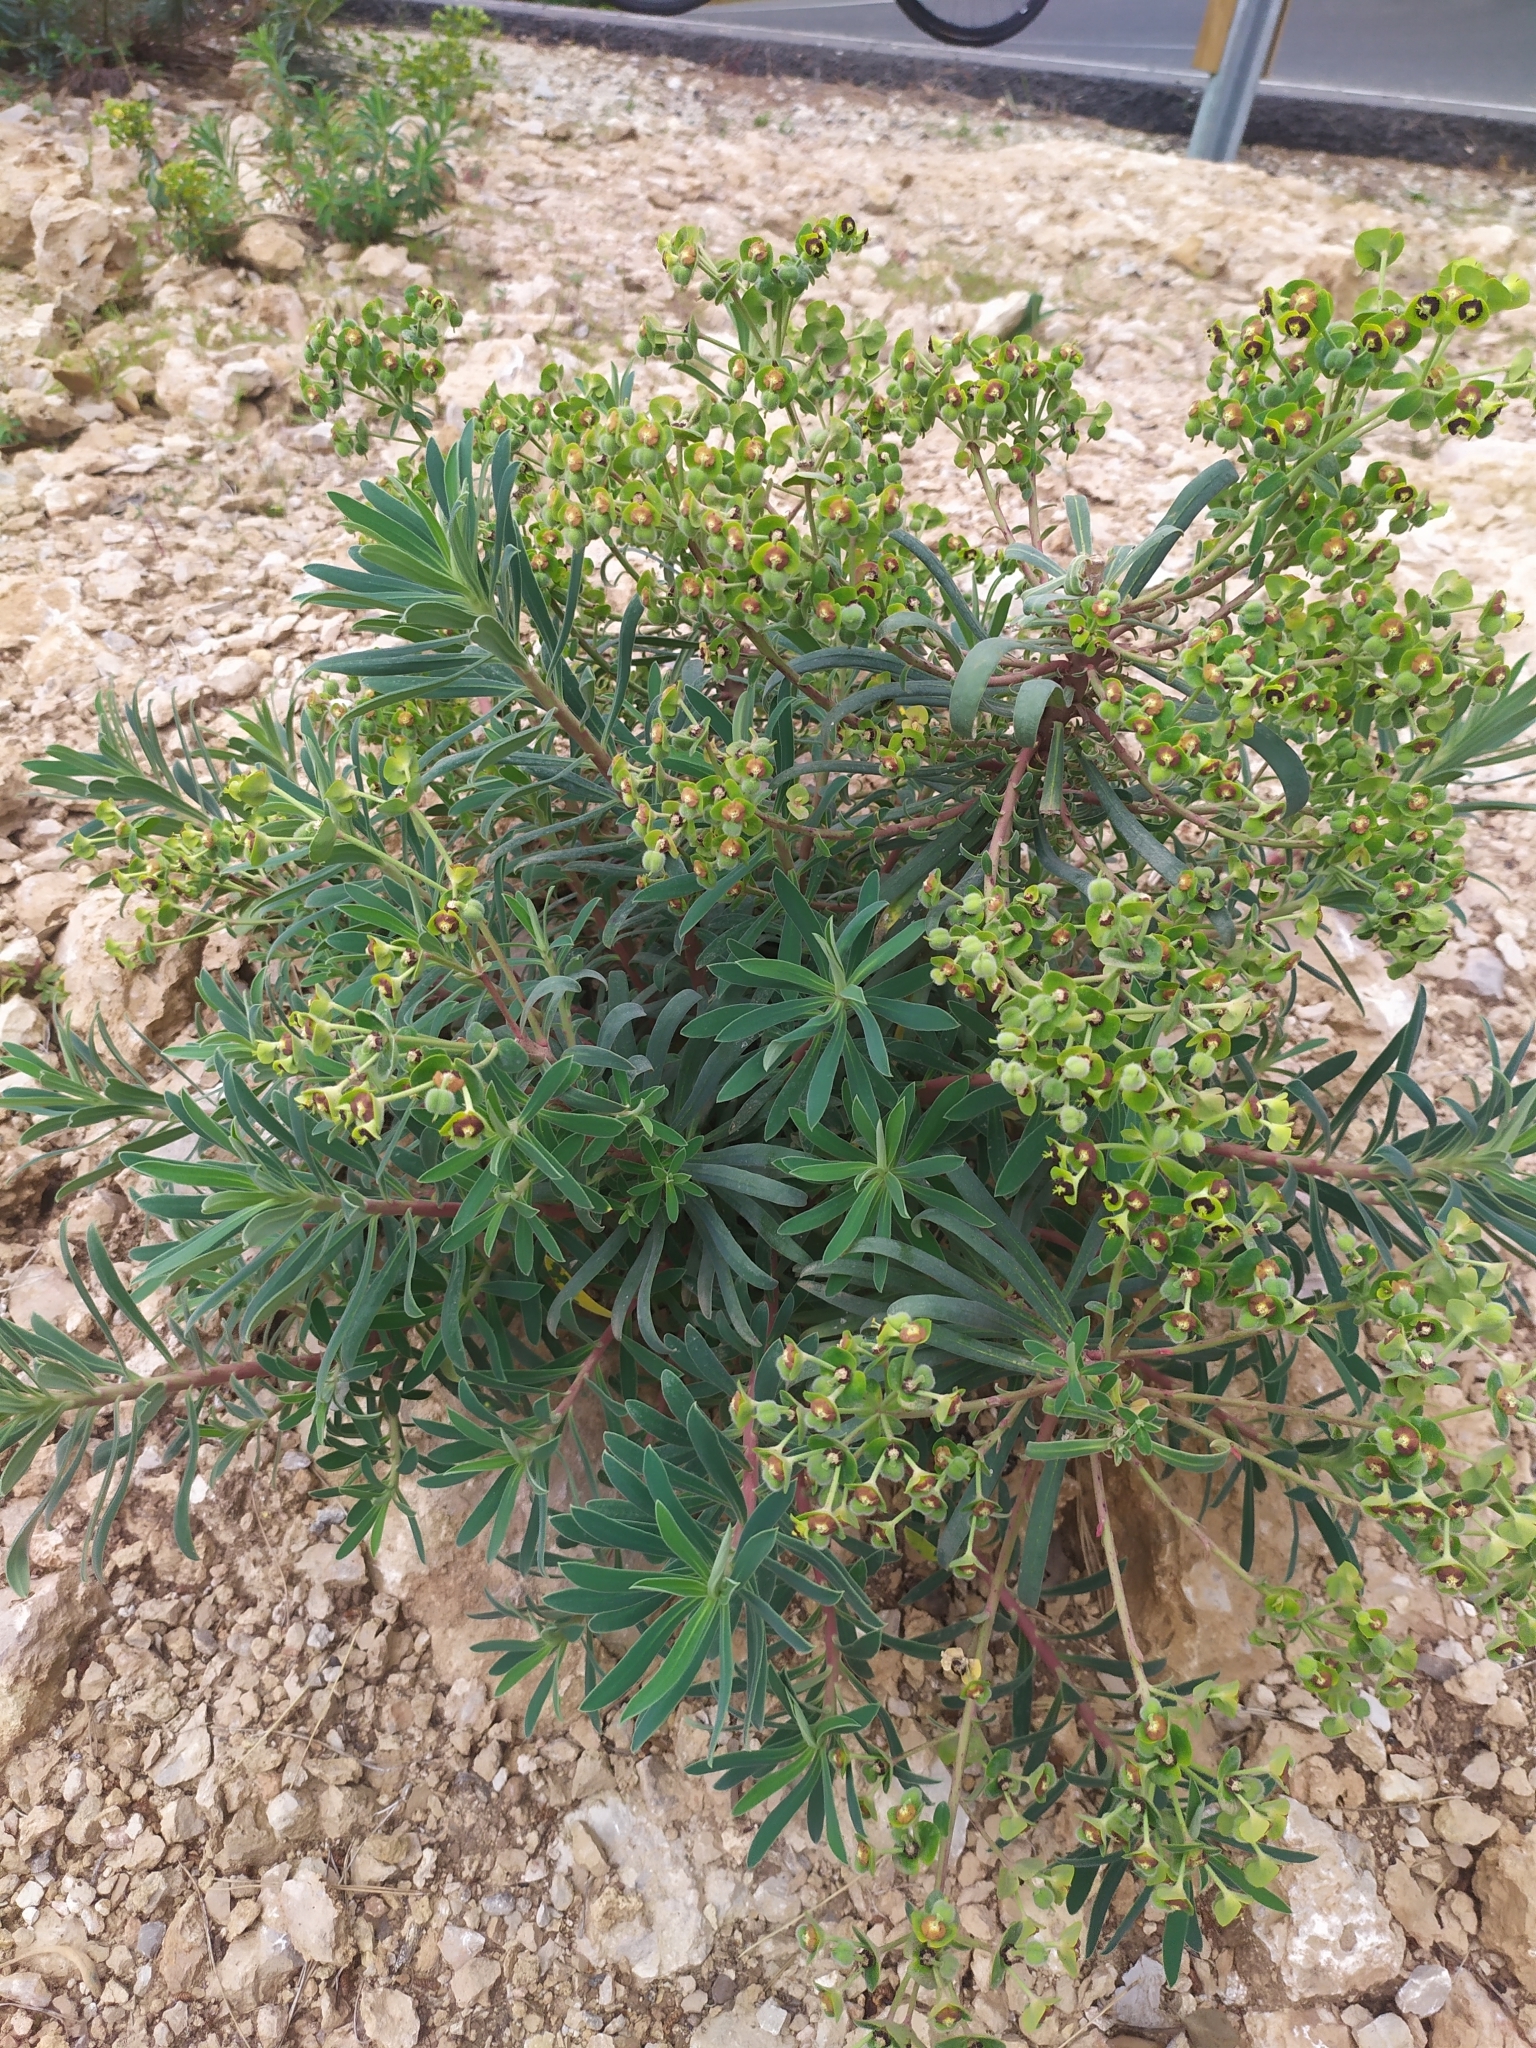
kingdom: Plantae
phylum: Tracheophyta
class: Magnoliopsida
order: Malpighiales
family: Euphorbiaceae
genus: Euphorbia
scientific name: Euphorbia characias
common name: Mediterranean spurge
